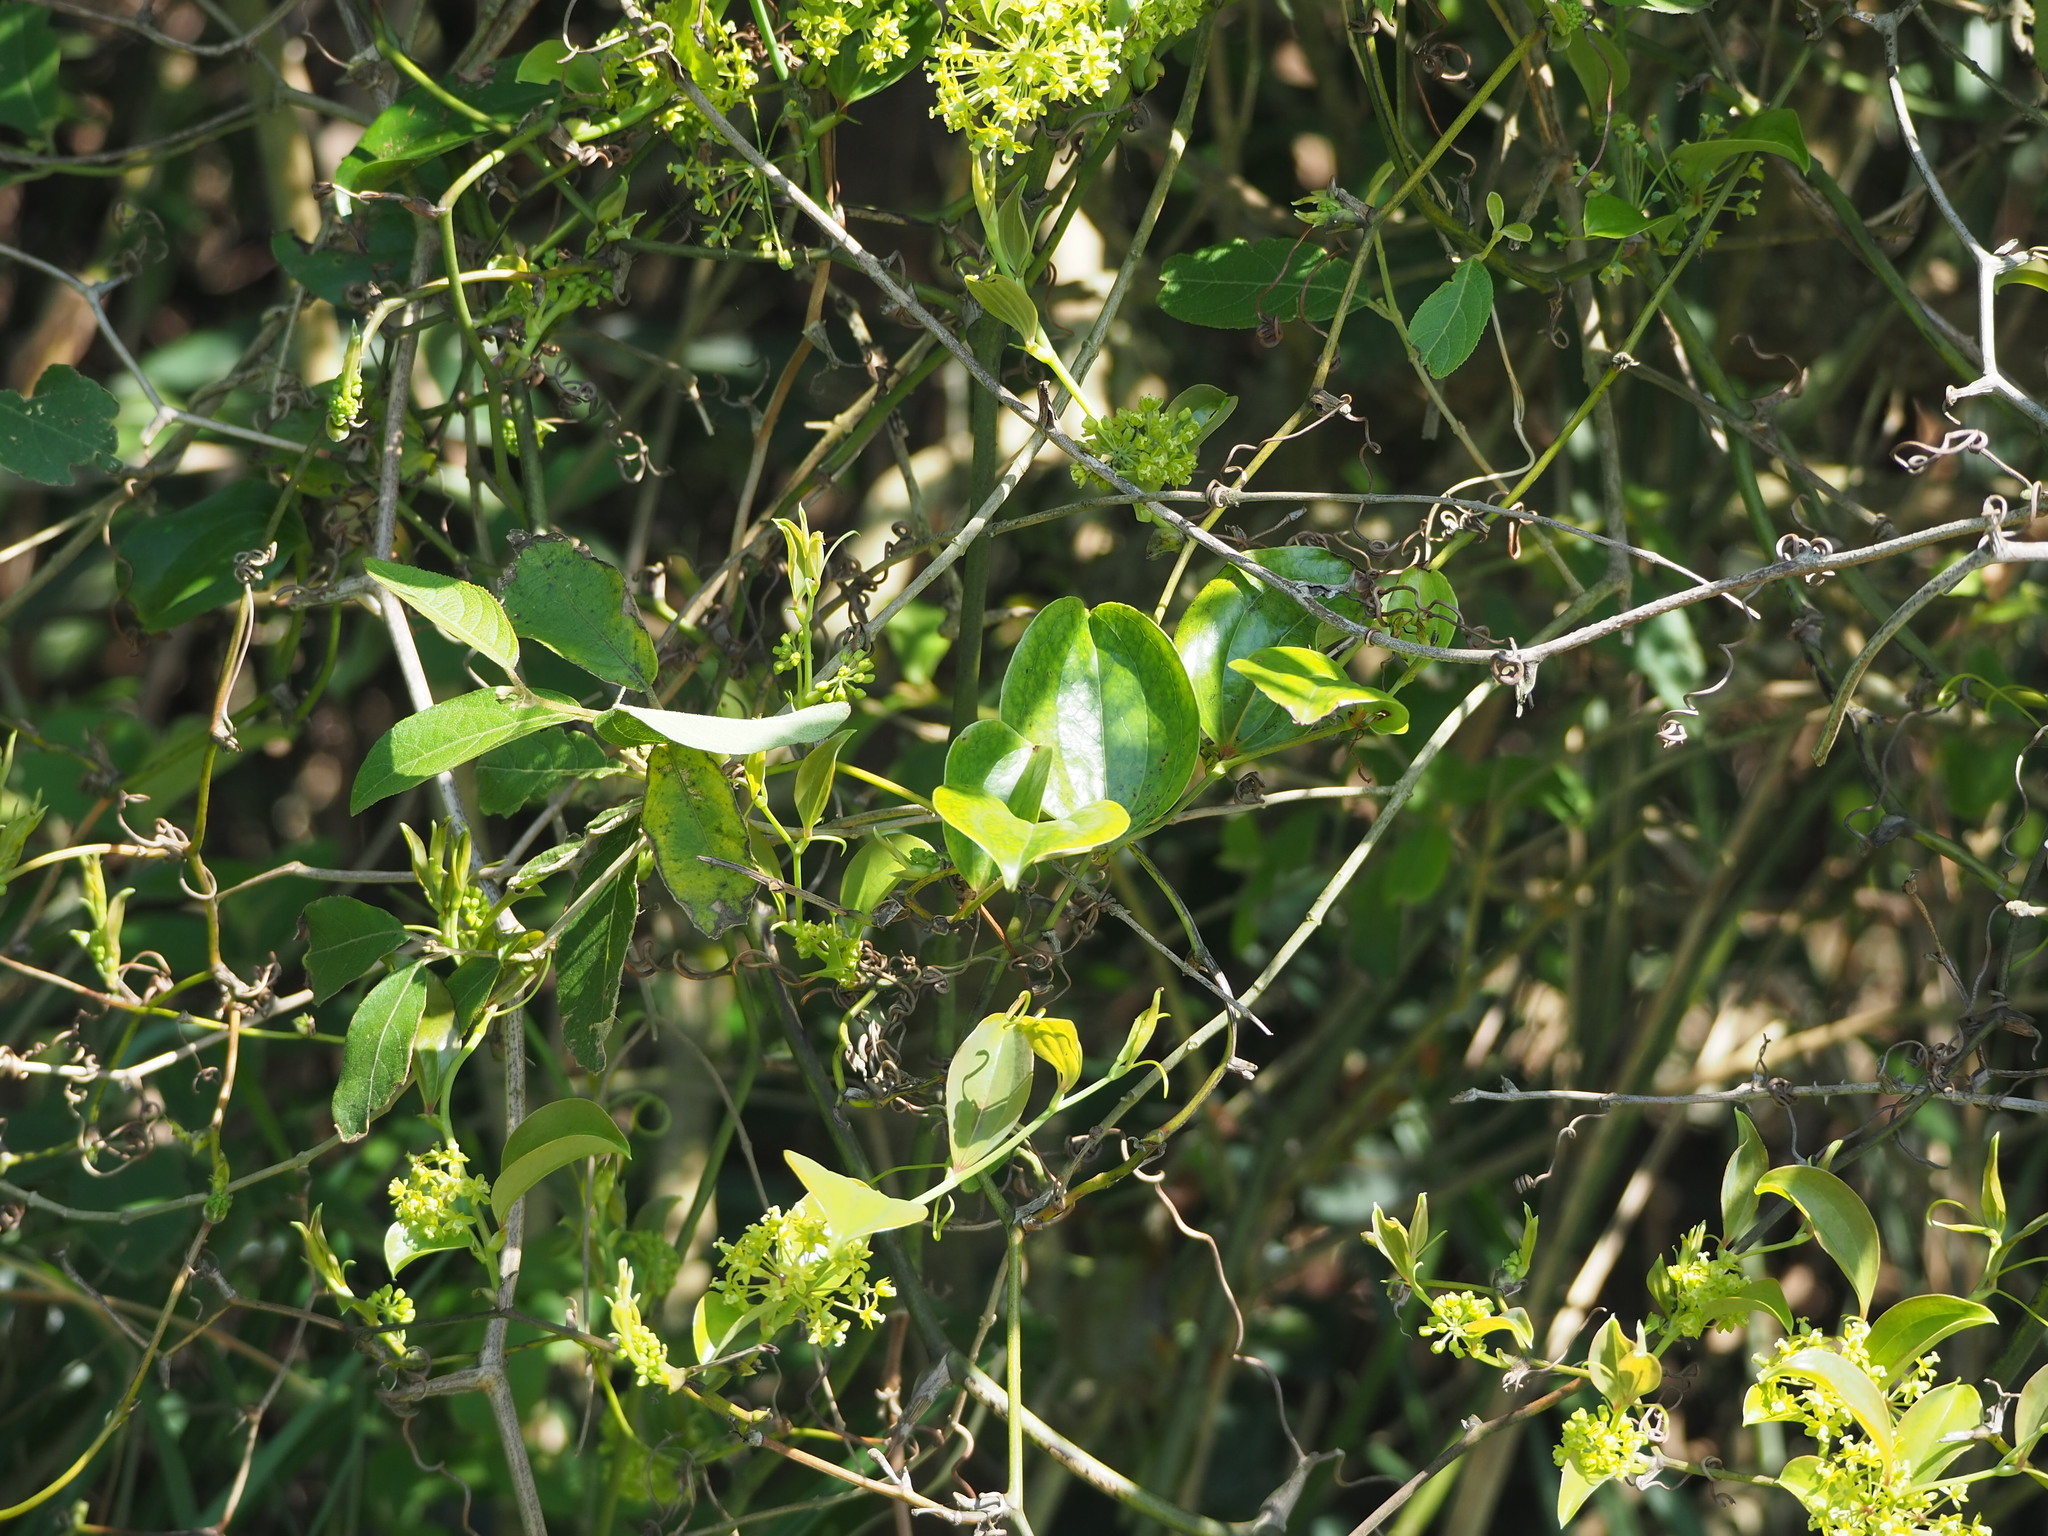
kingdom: Plantae
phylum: Tracheophyta
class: Liliopsida
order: Liliales
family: Smilacaceae
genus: Smilax
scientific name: Smilax china
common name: Chinaroot
